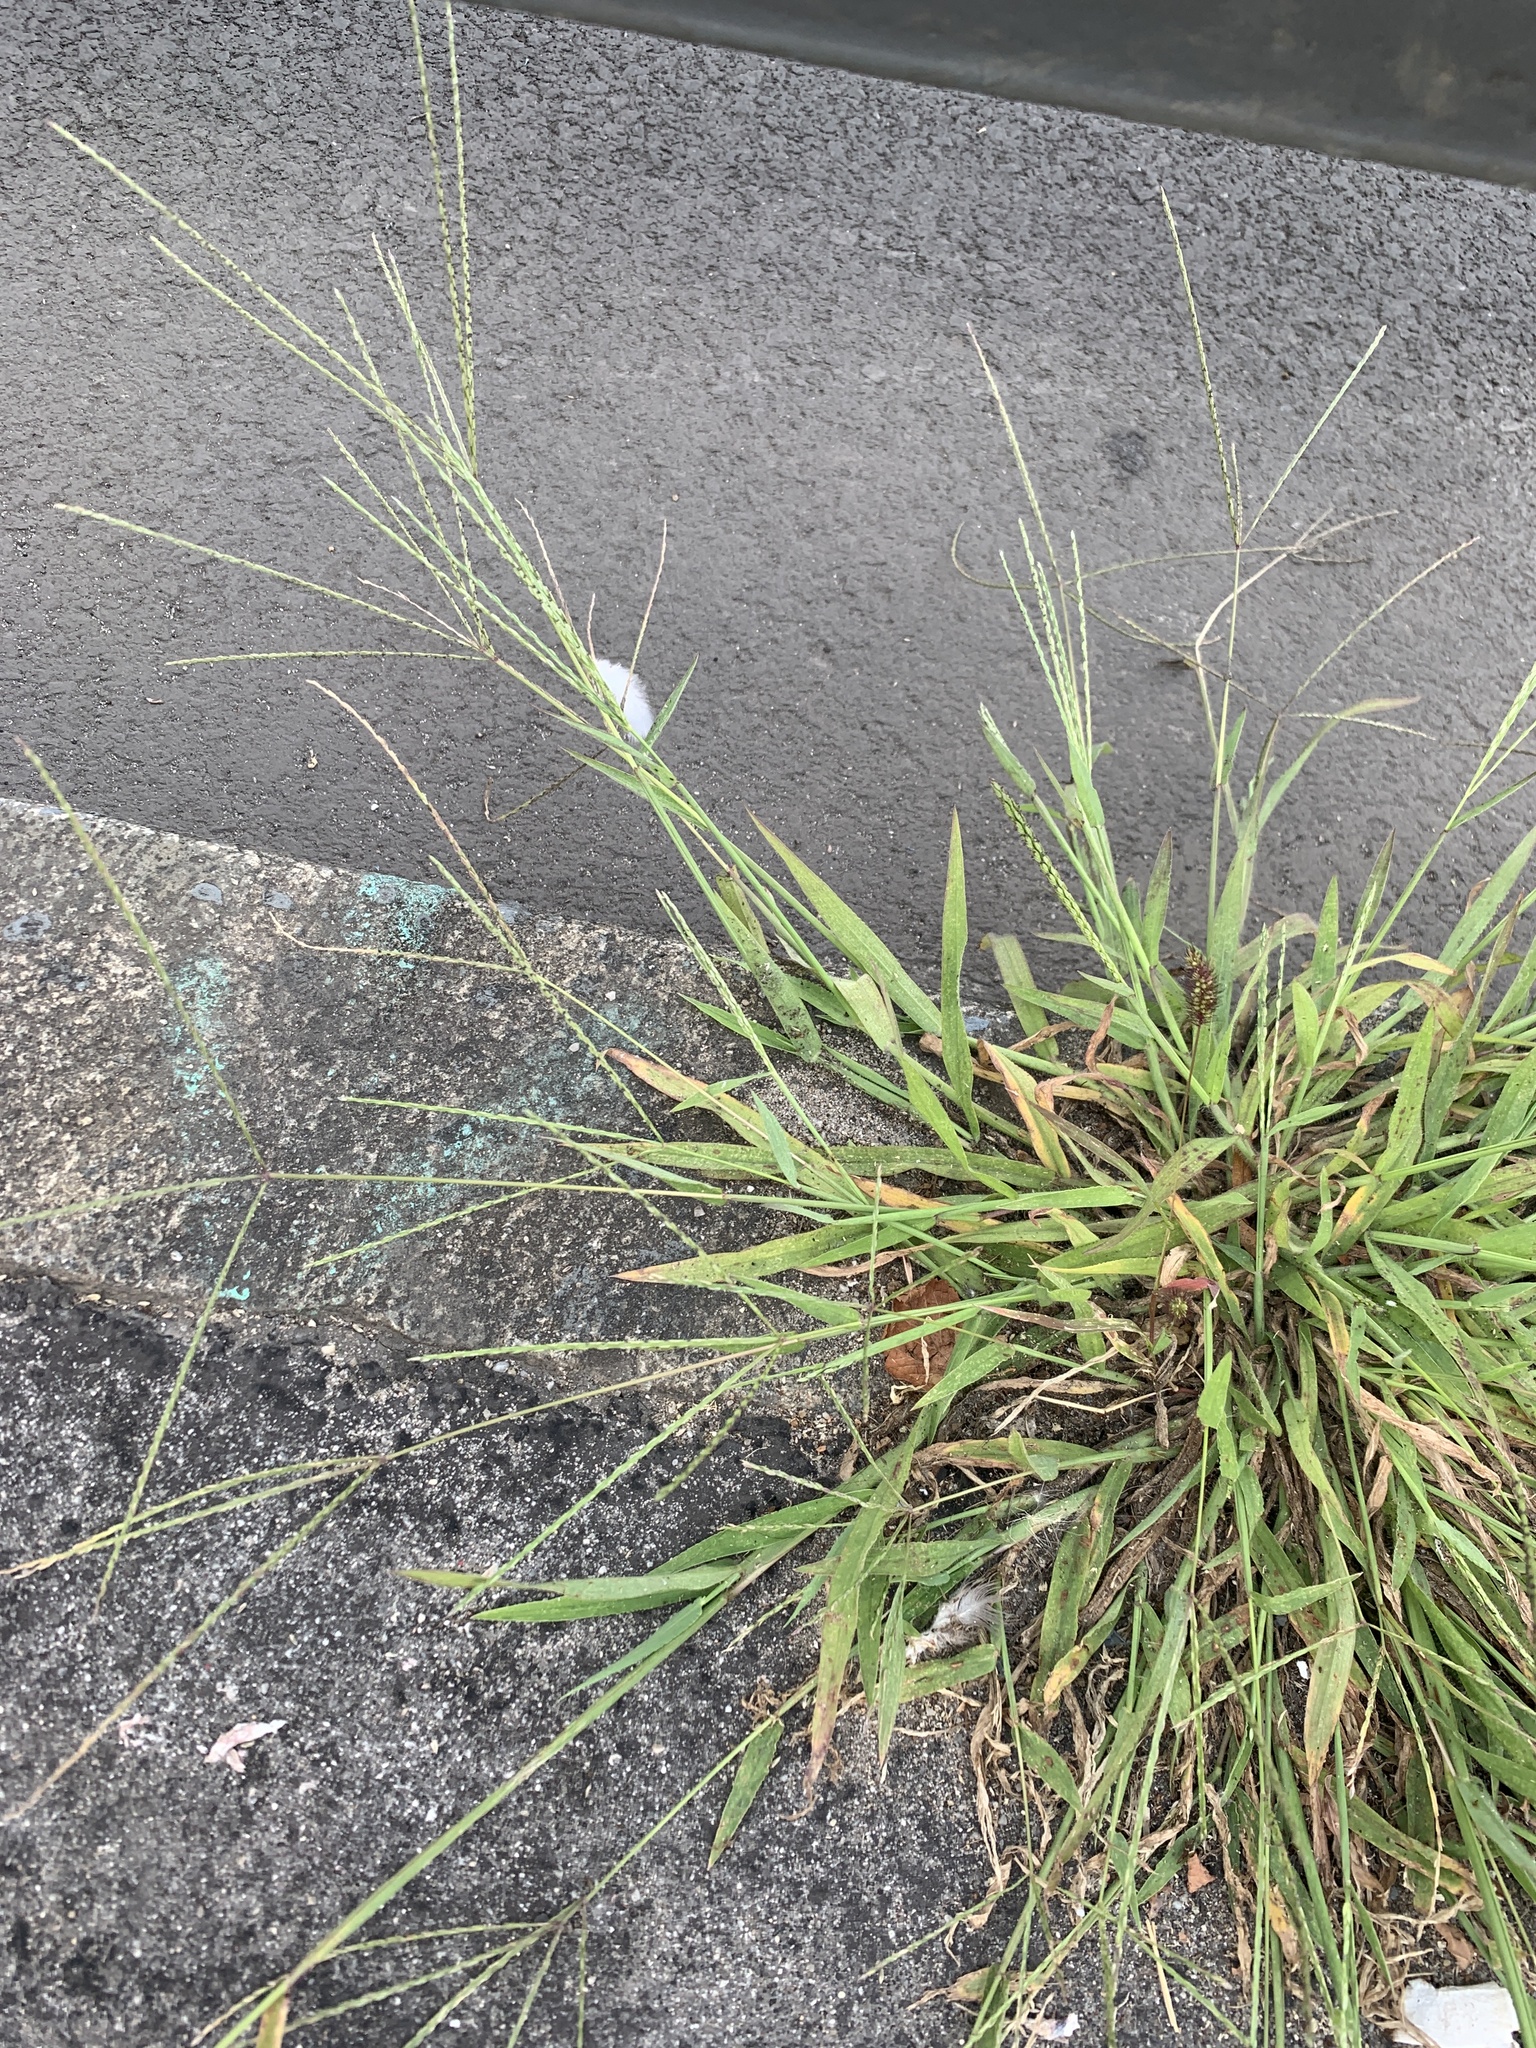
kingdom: Plantae
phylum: Tracheophyta
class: Liliopsida
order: Poales
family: Poaceae
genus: Digitaria
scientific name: Digitaria sanguinalis
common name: Hairy crabgrass
